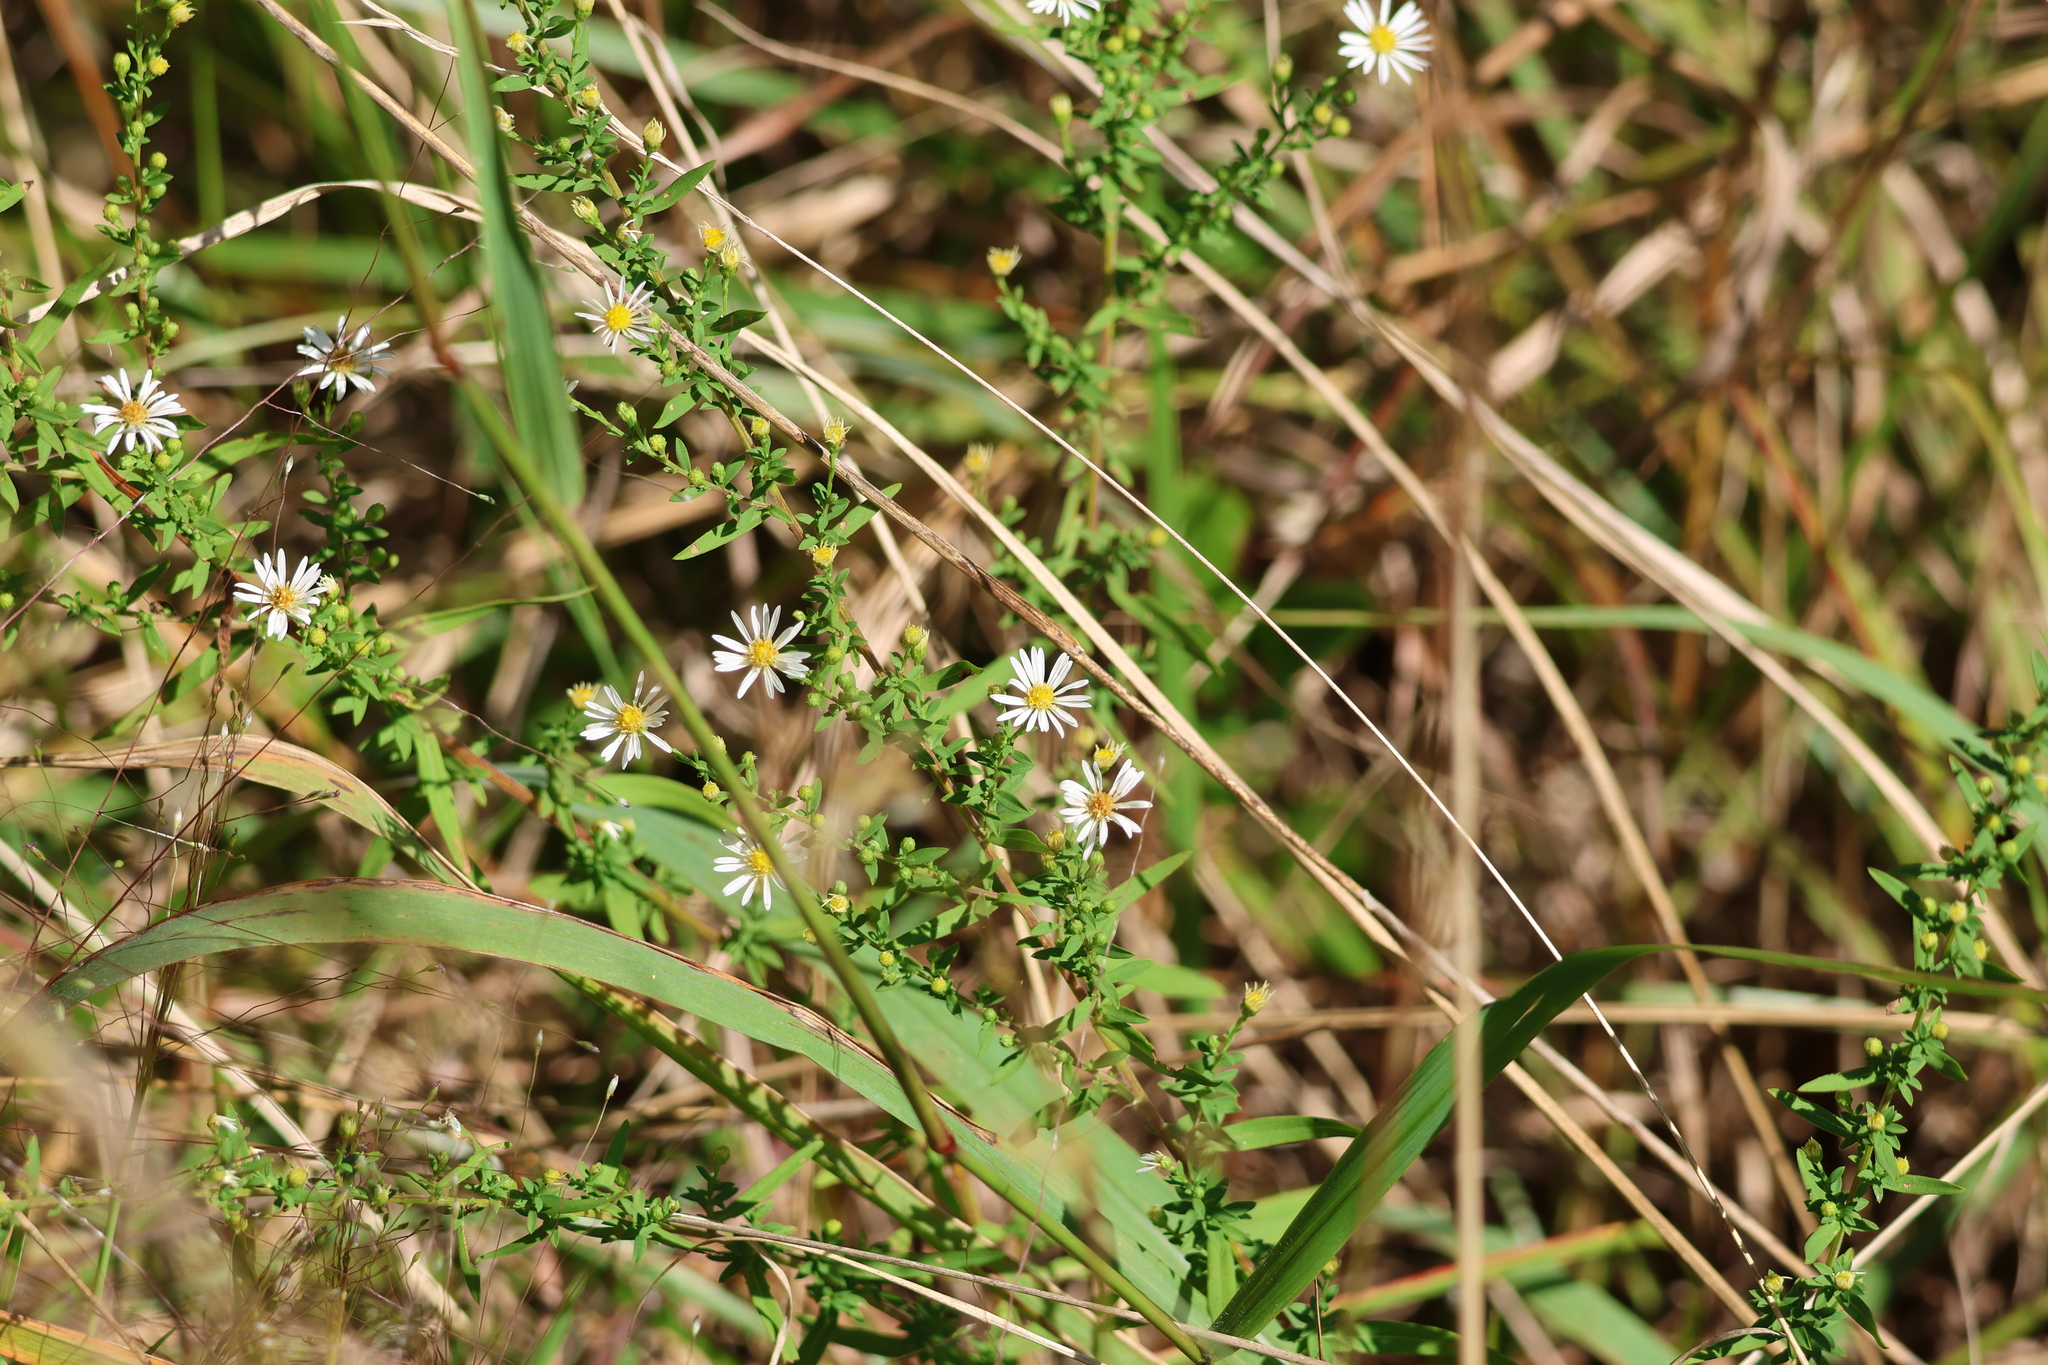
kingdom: Plantae
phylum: Tracheophyta
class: Magnoliopsida
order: Asterales
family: Asteraceae
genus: Symphyotrichum
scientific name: Symphyotrichum dumosum
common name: Bushy aster
